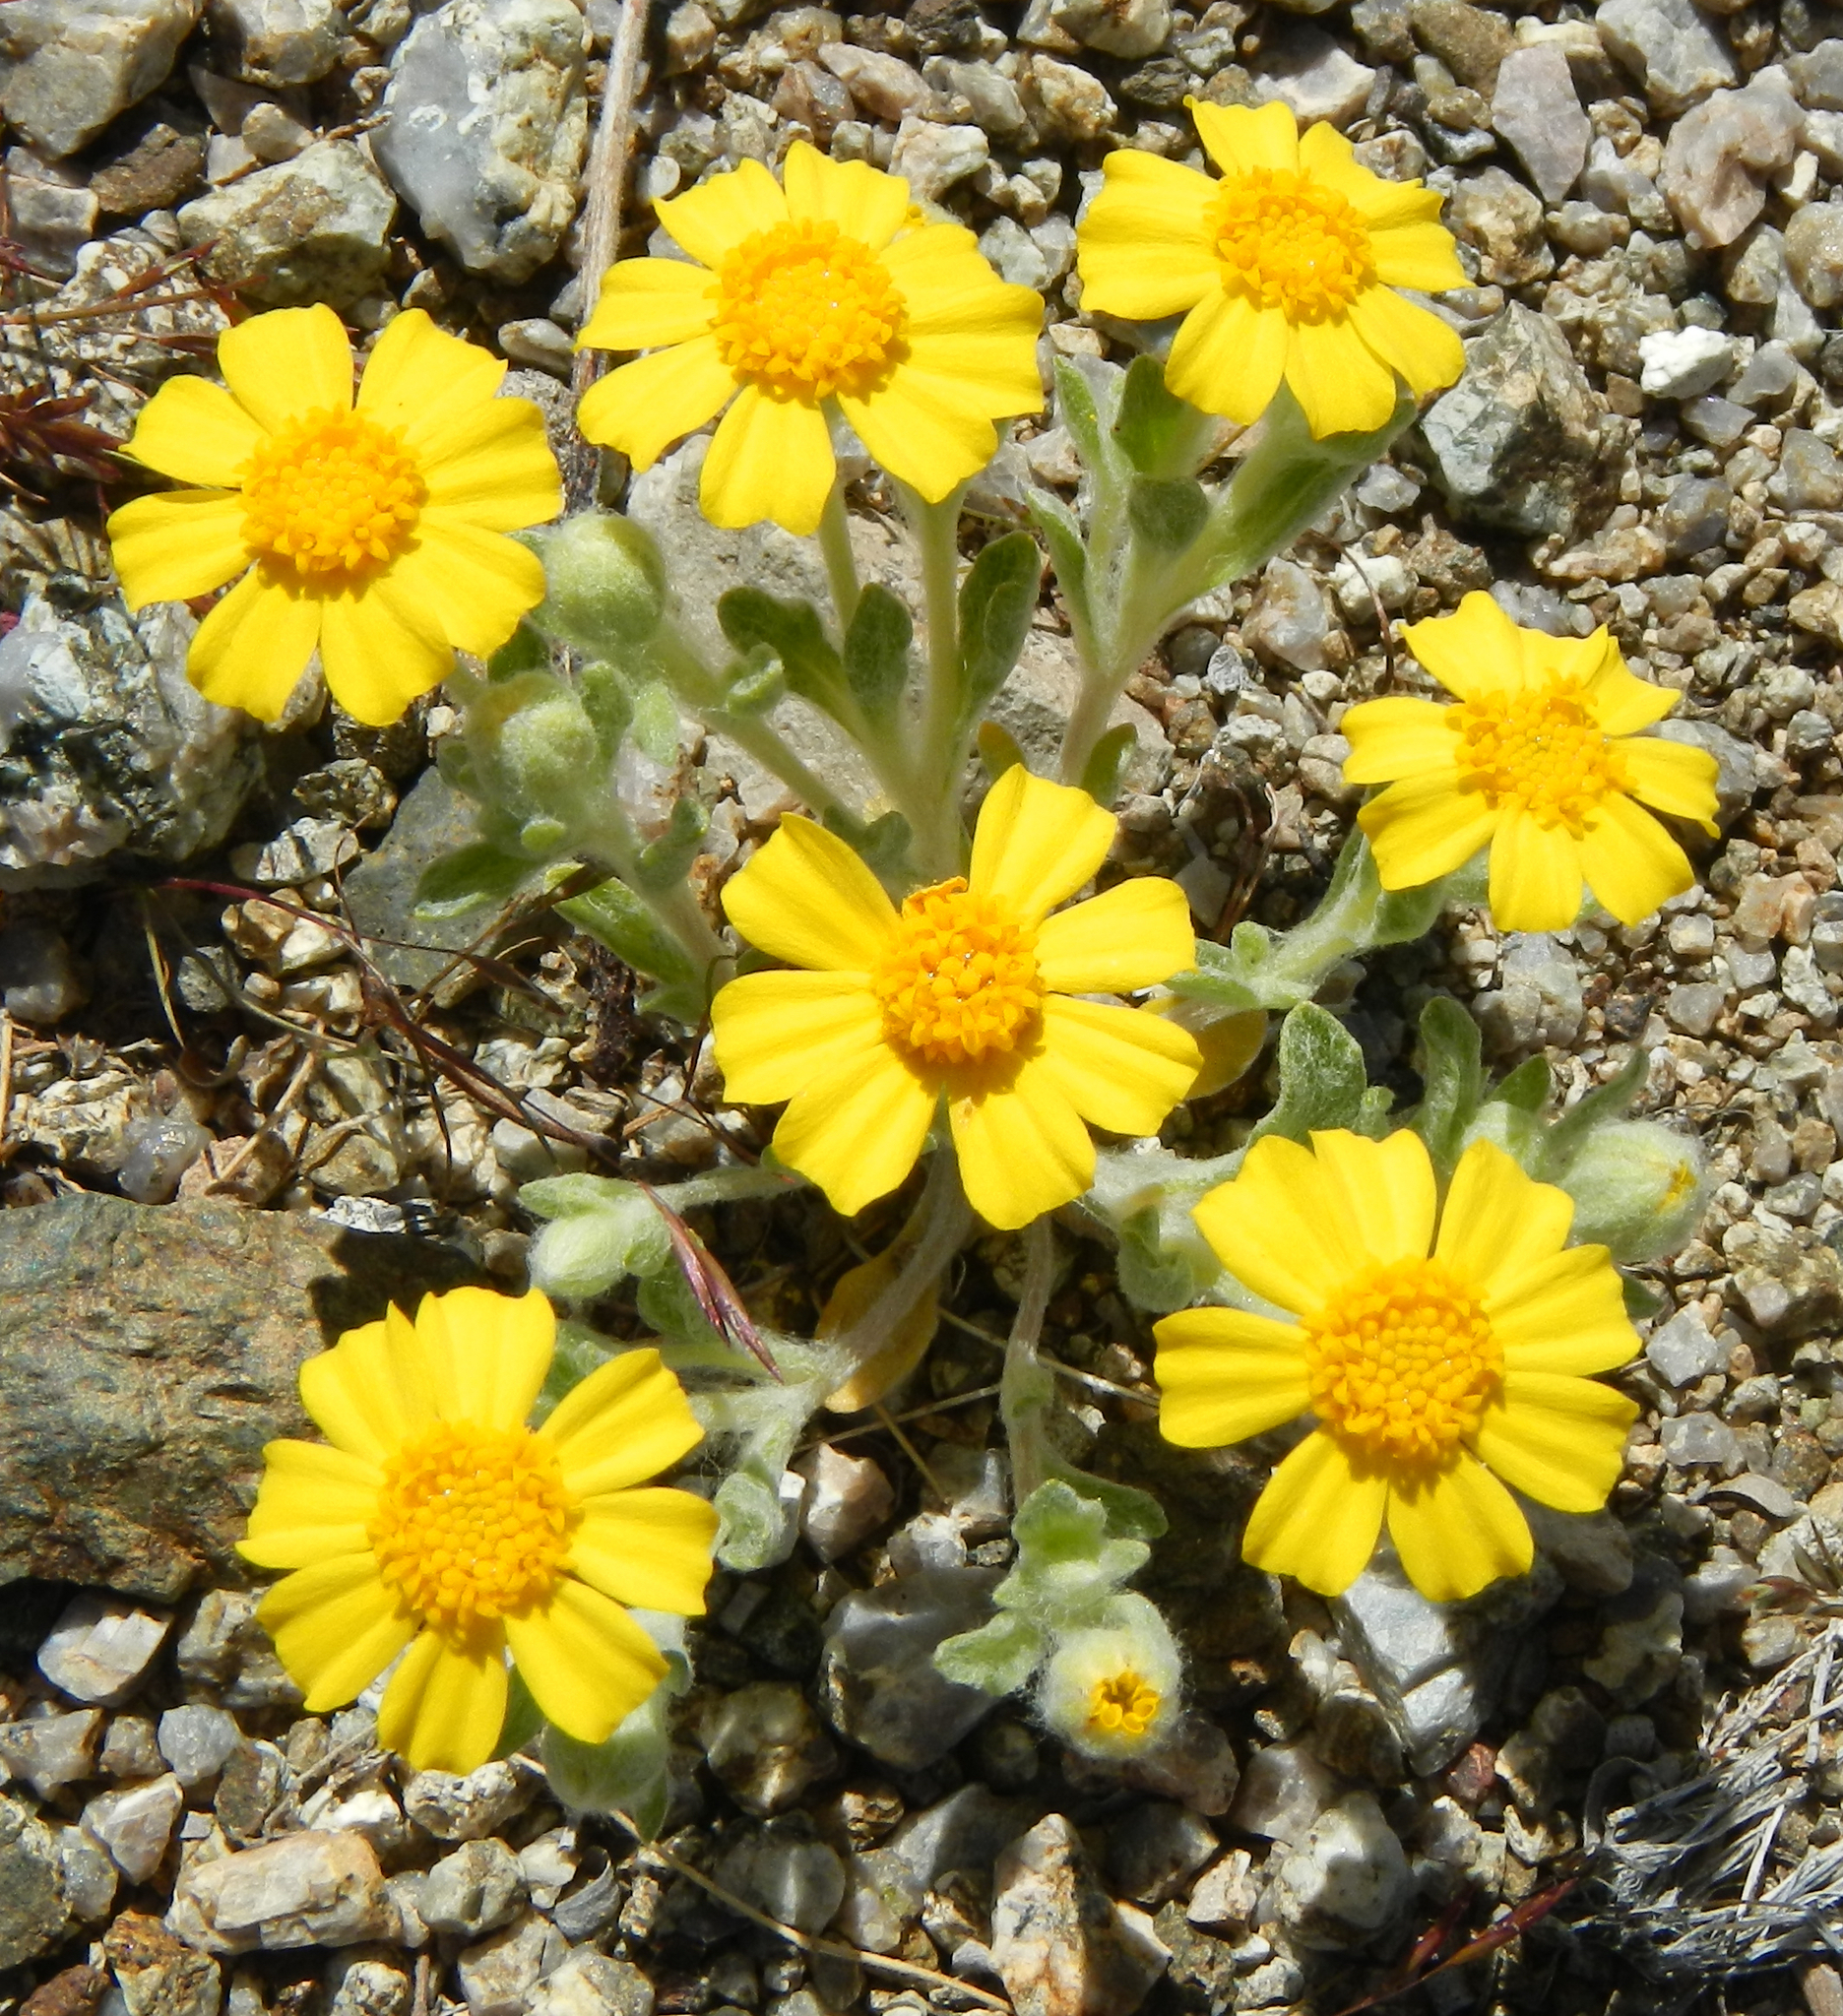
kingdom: Plantae
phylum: Tracheophyta
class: Magnoliopsida
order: Asterales
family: Asteraceae
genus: Eriophyllum
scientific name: Eriophyllum wallacei
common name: Wallace's woolly daisy
